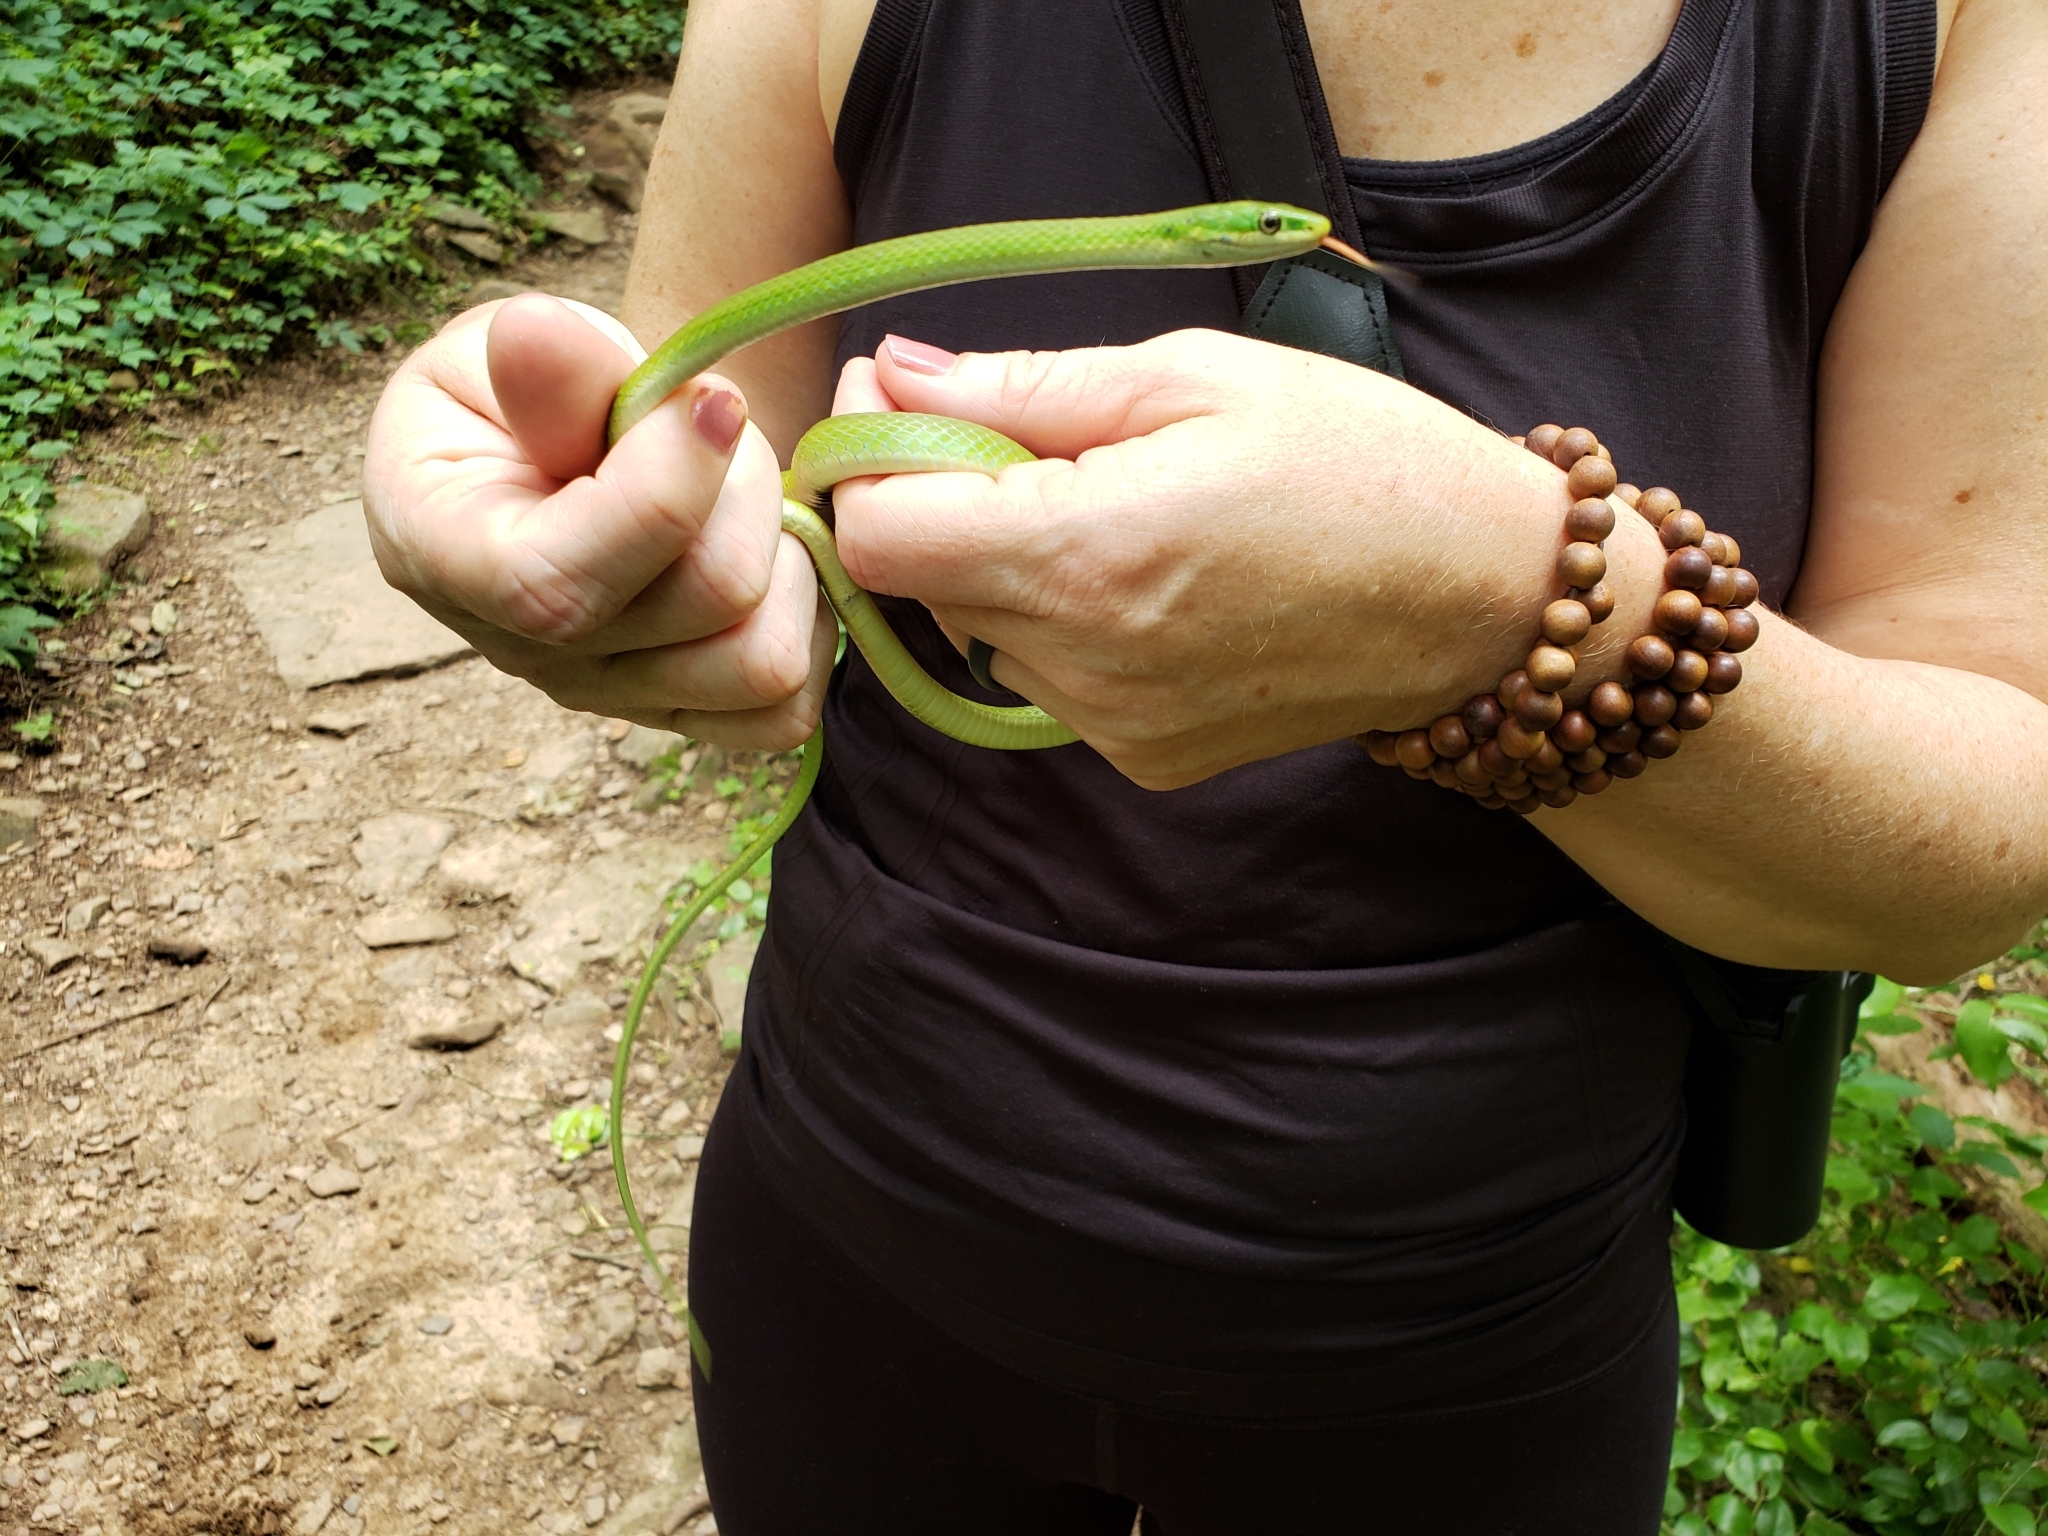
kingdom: Animalia
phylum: Chordata
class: Squamata
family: Colubridae
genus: Opheodrys
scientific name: Opheodrys aestivus
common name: Rough greensnake
